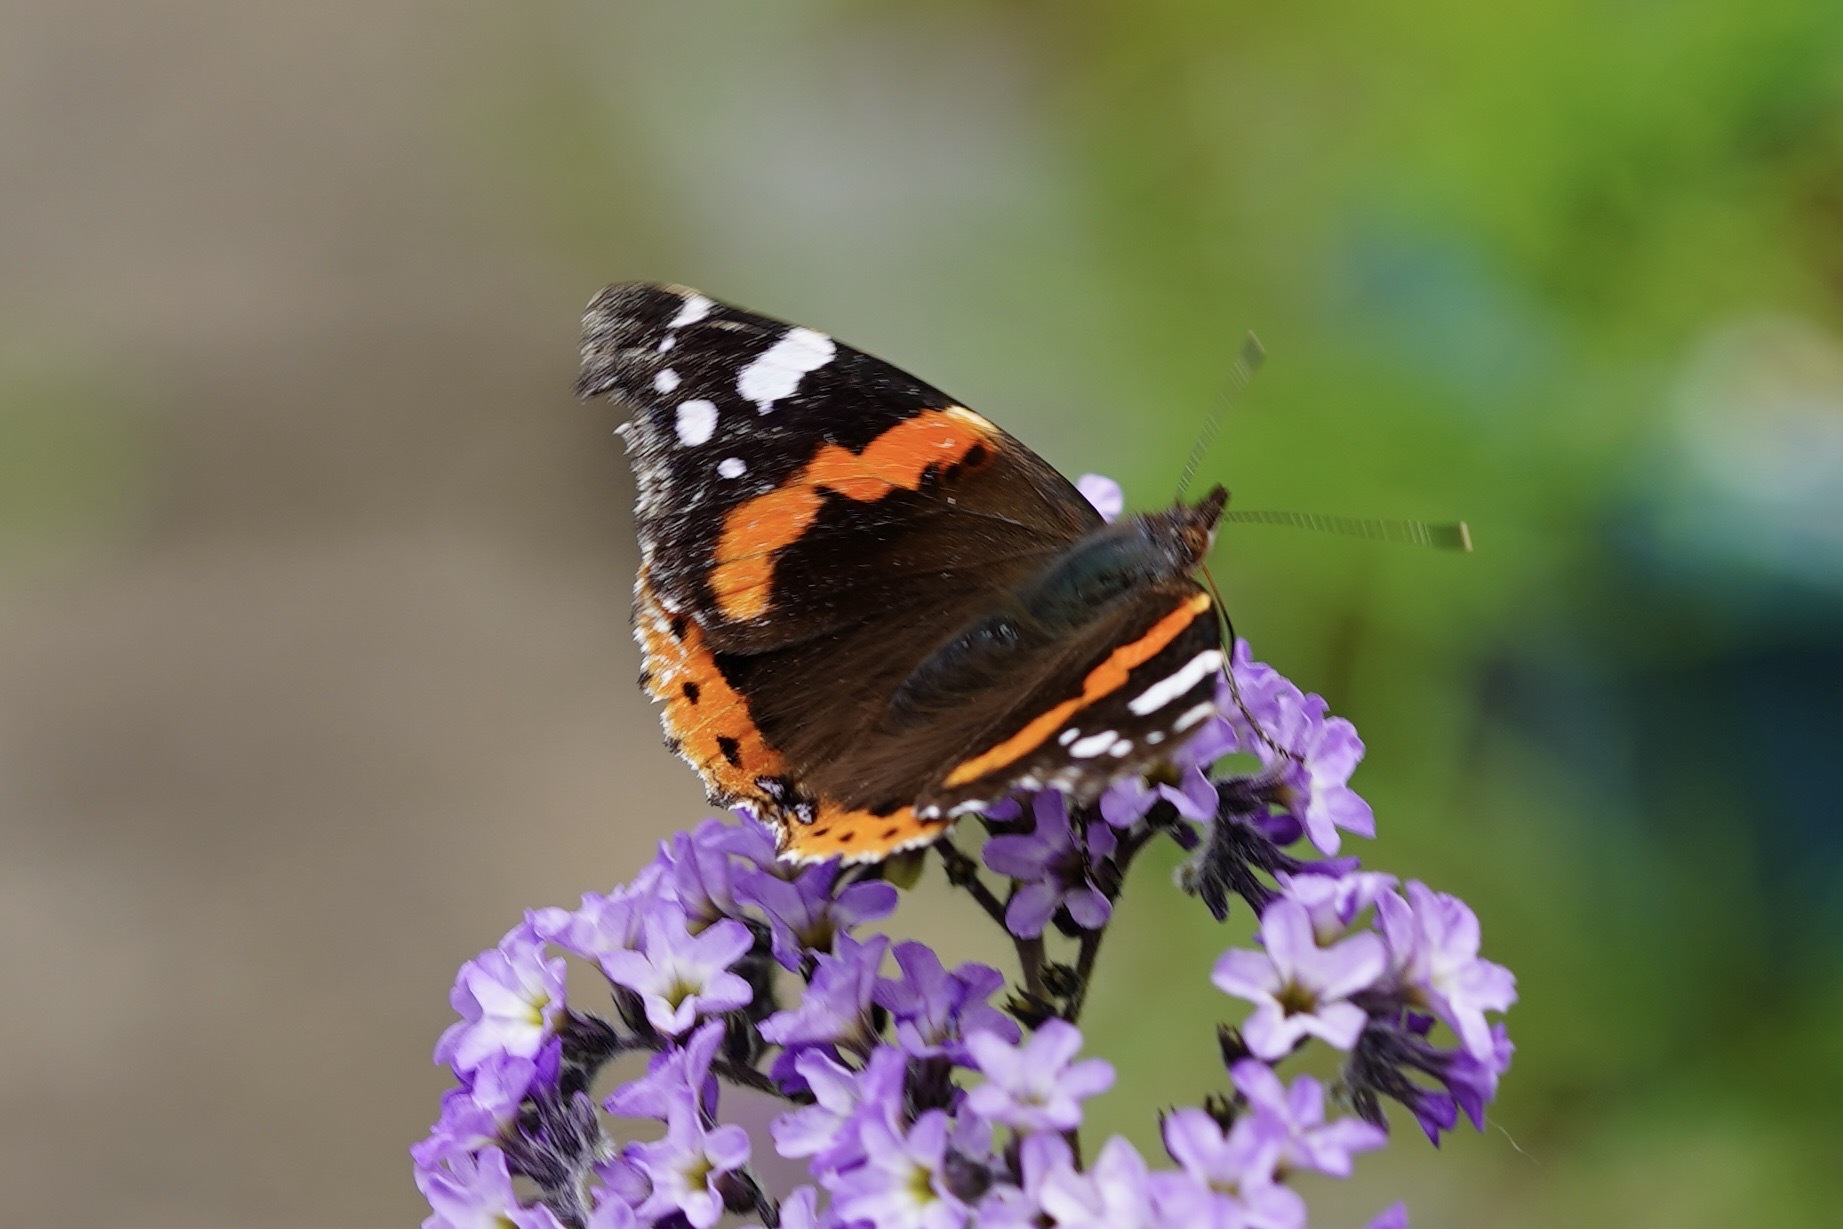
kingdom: Animalia
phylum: Arthropoda
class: Insecta
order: Lepidoptera
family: Nymphalidae
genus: Vanessa
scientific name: Vanessa atalanta
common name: Red admiral
